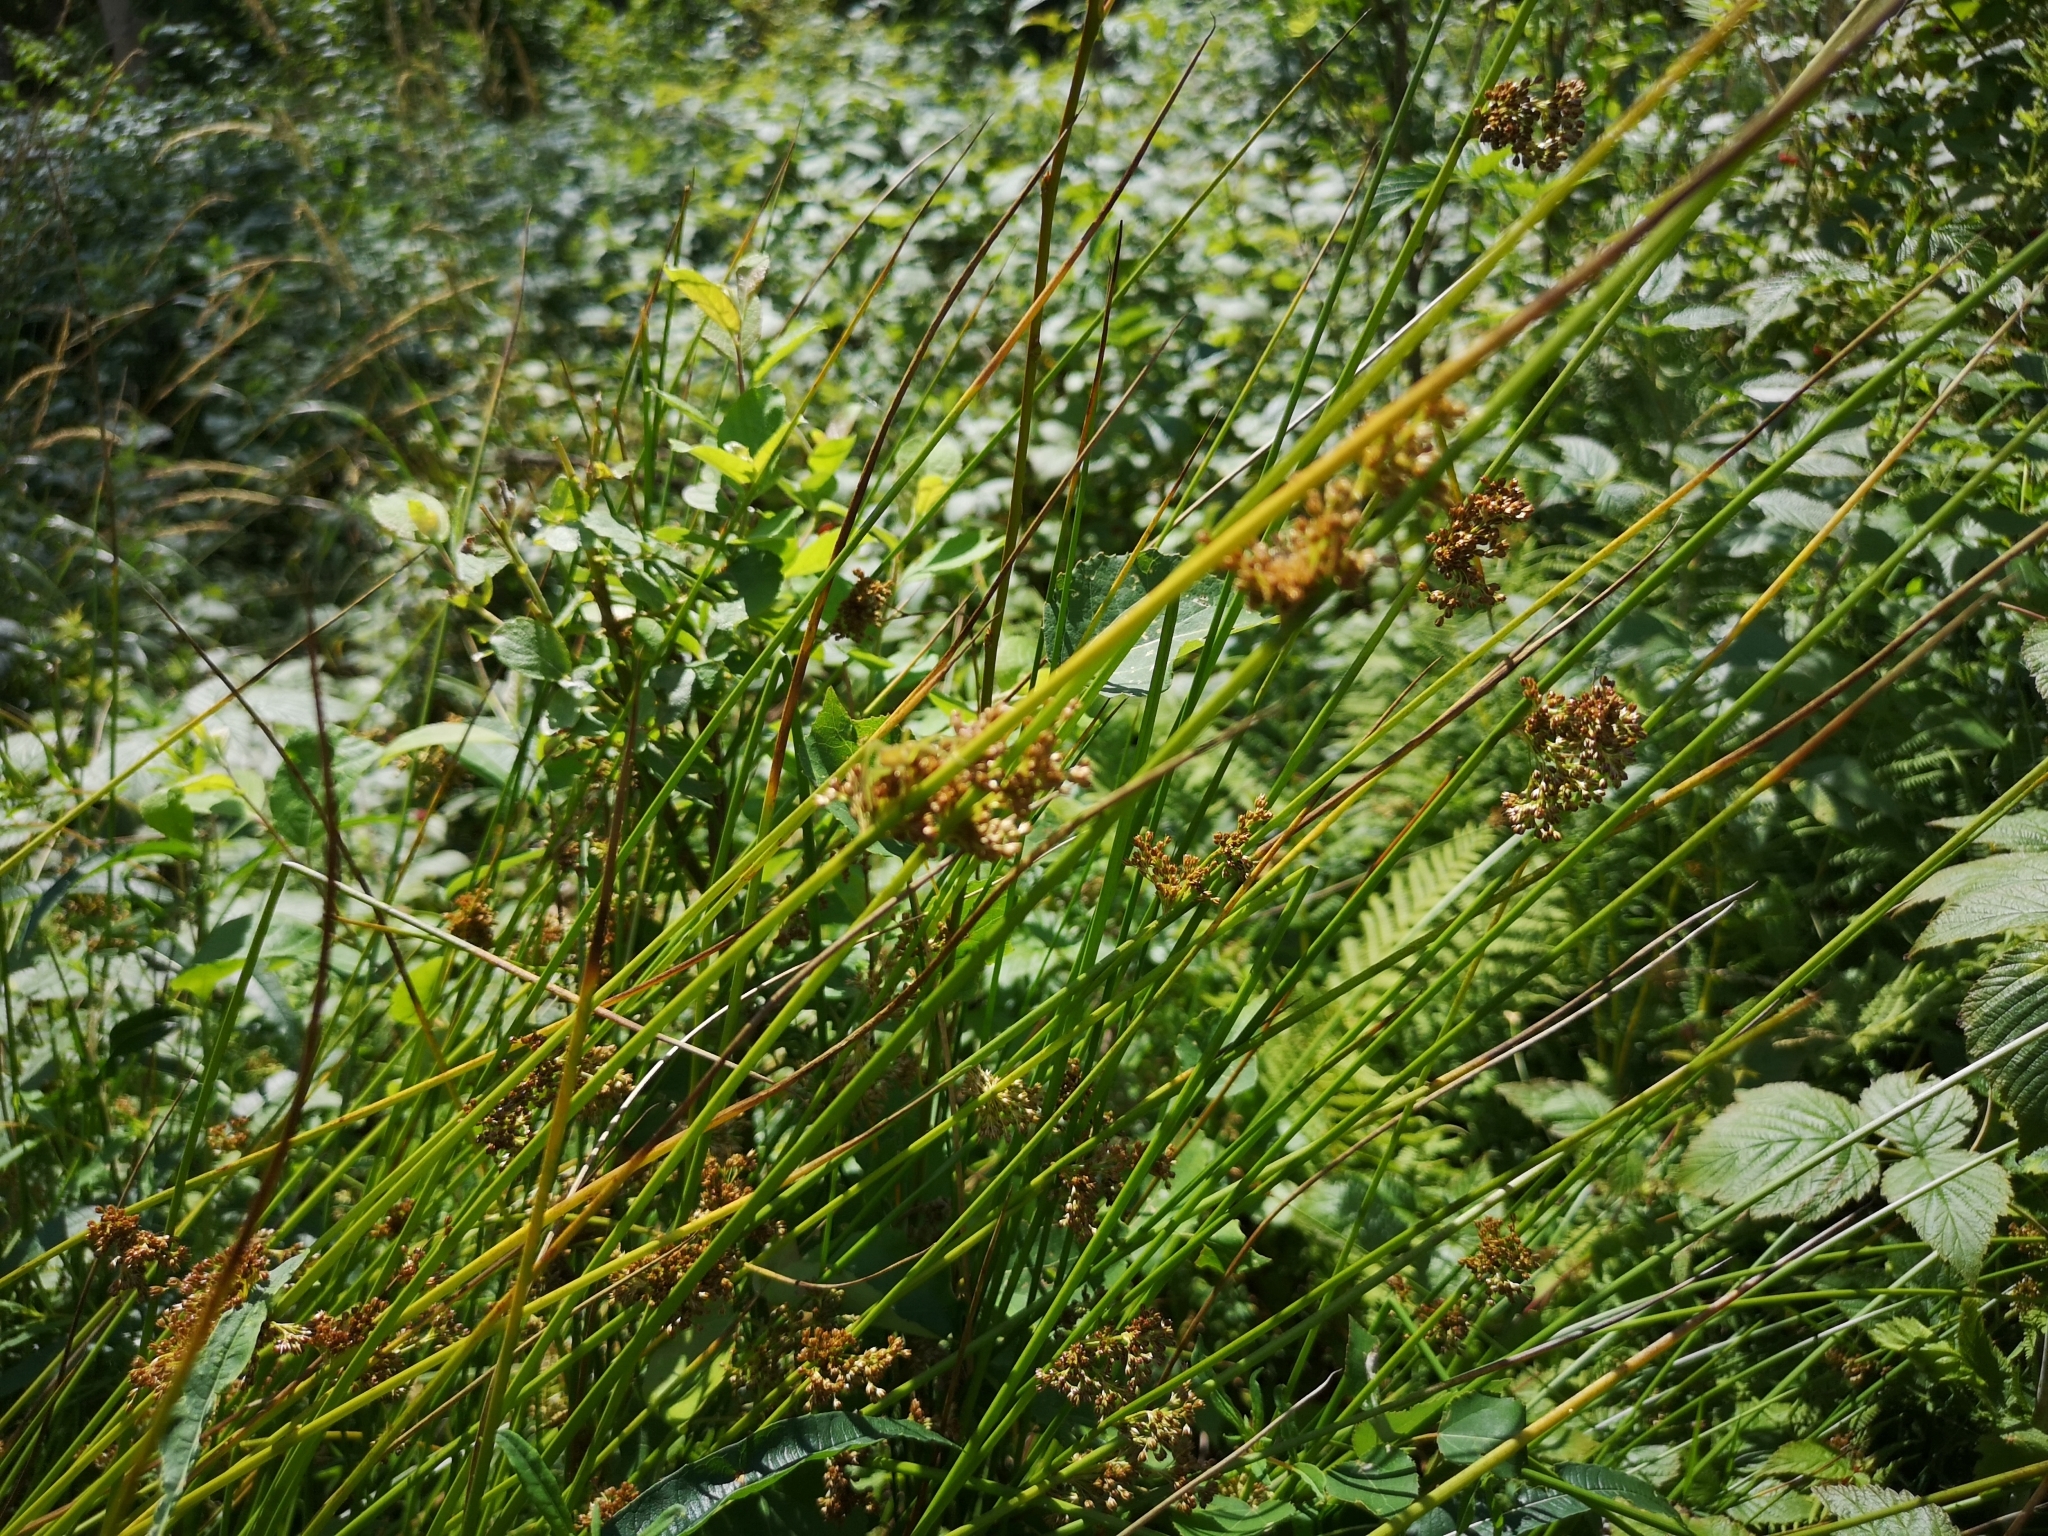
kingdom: Plantae
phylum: Tracheophyta
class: Liliopsida
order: Poales
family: Juncaceae
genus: Juncus
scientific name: Juncus effusus
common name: Soft rush
